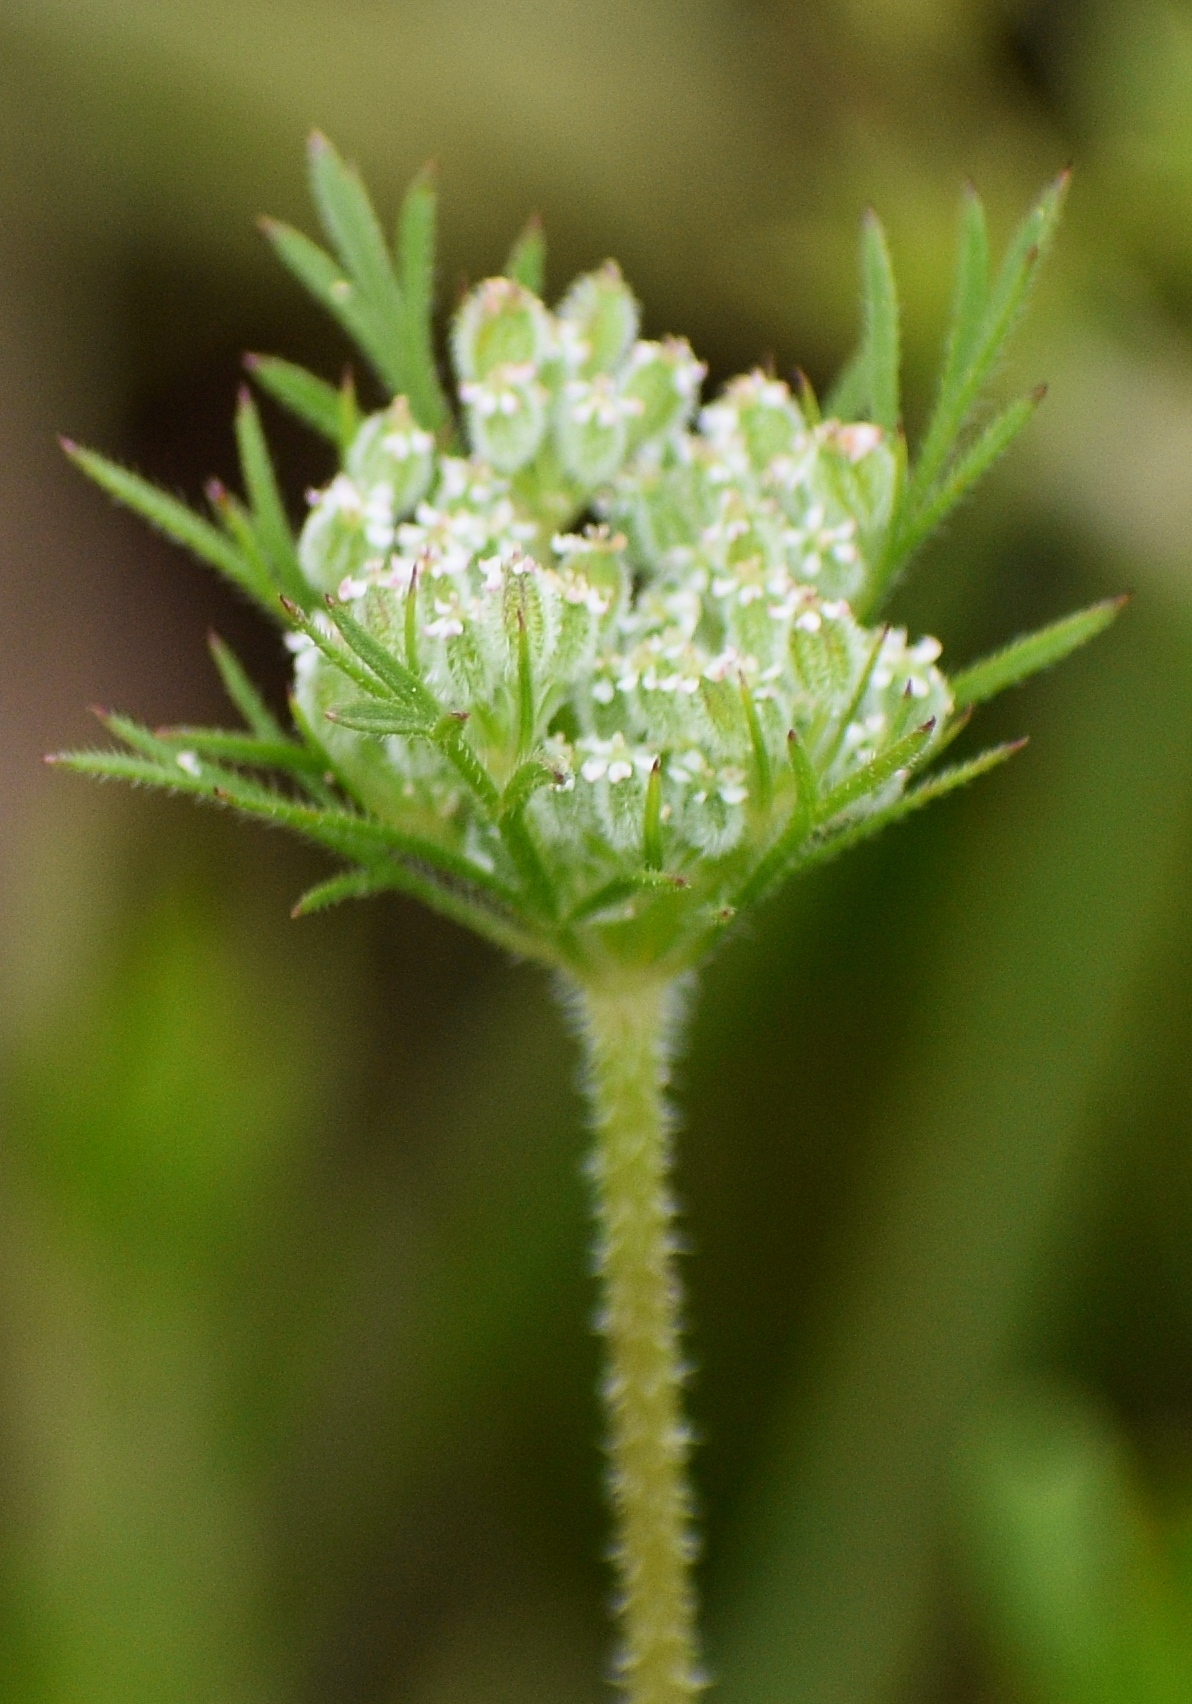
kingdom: Plantae
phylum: Tracheophyta
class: Magnoliopsida
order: Apiales
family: Apiaceae
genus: Daucus
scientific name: Daucus pusillus
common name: Southwest wild carrot
